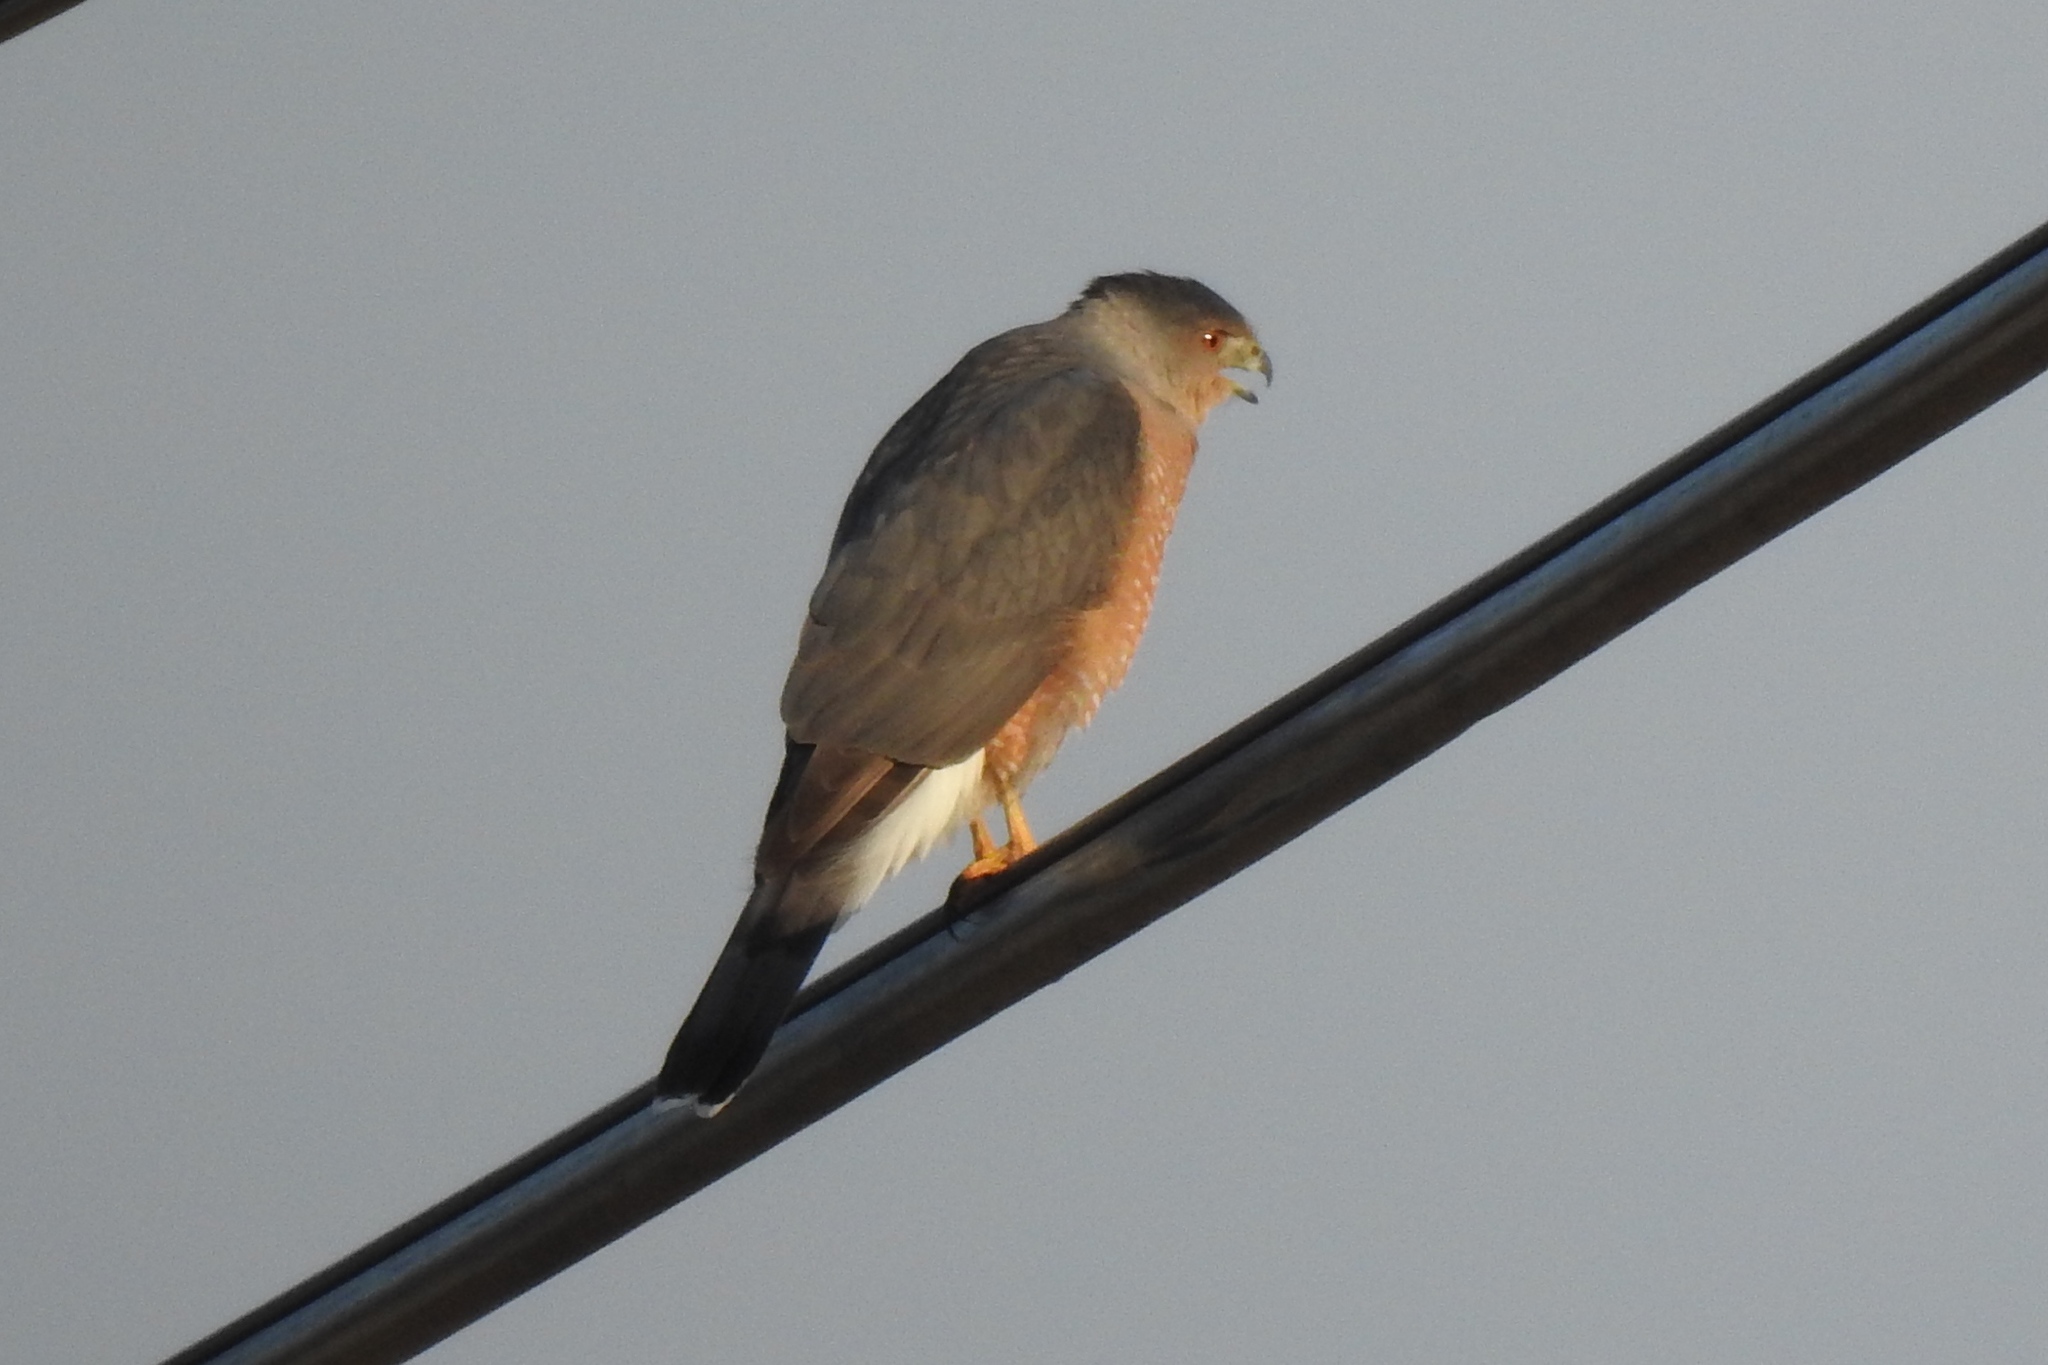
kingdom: Animalia
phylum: Chordata
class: Aves
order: Accipitriformes
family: Accipitridae
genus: Accipiter
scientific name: Accipiter cooperii
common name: Cooper's hawk
